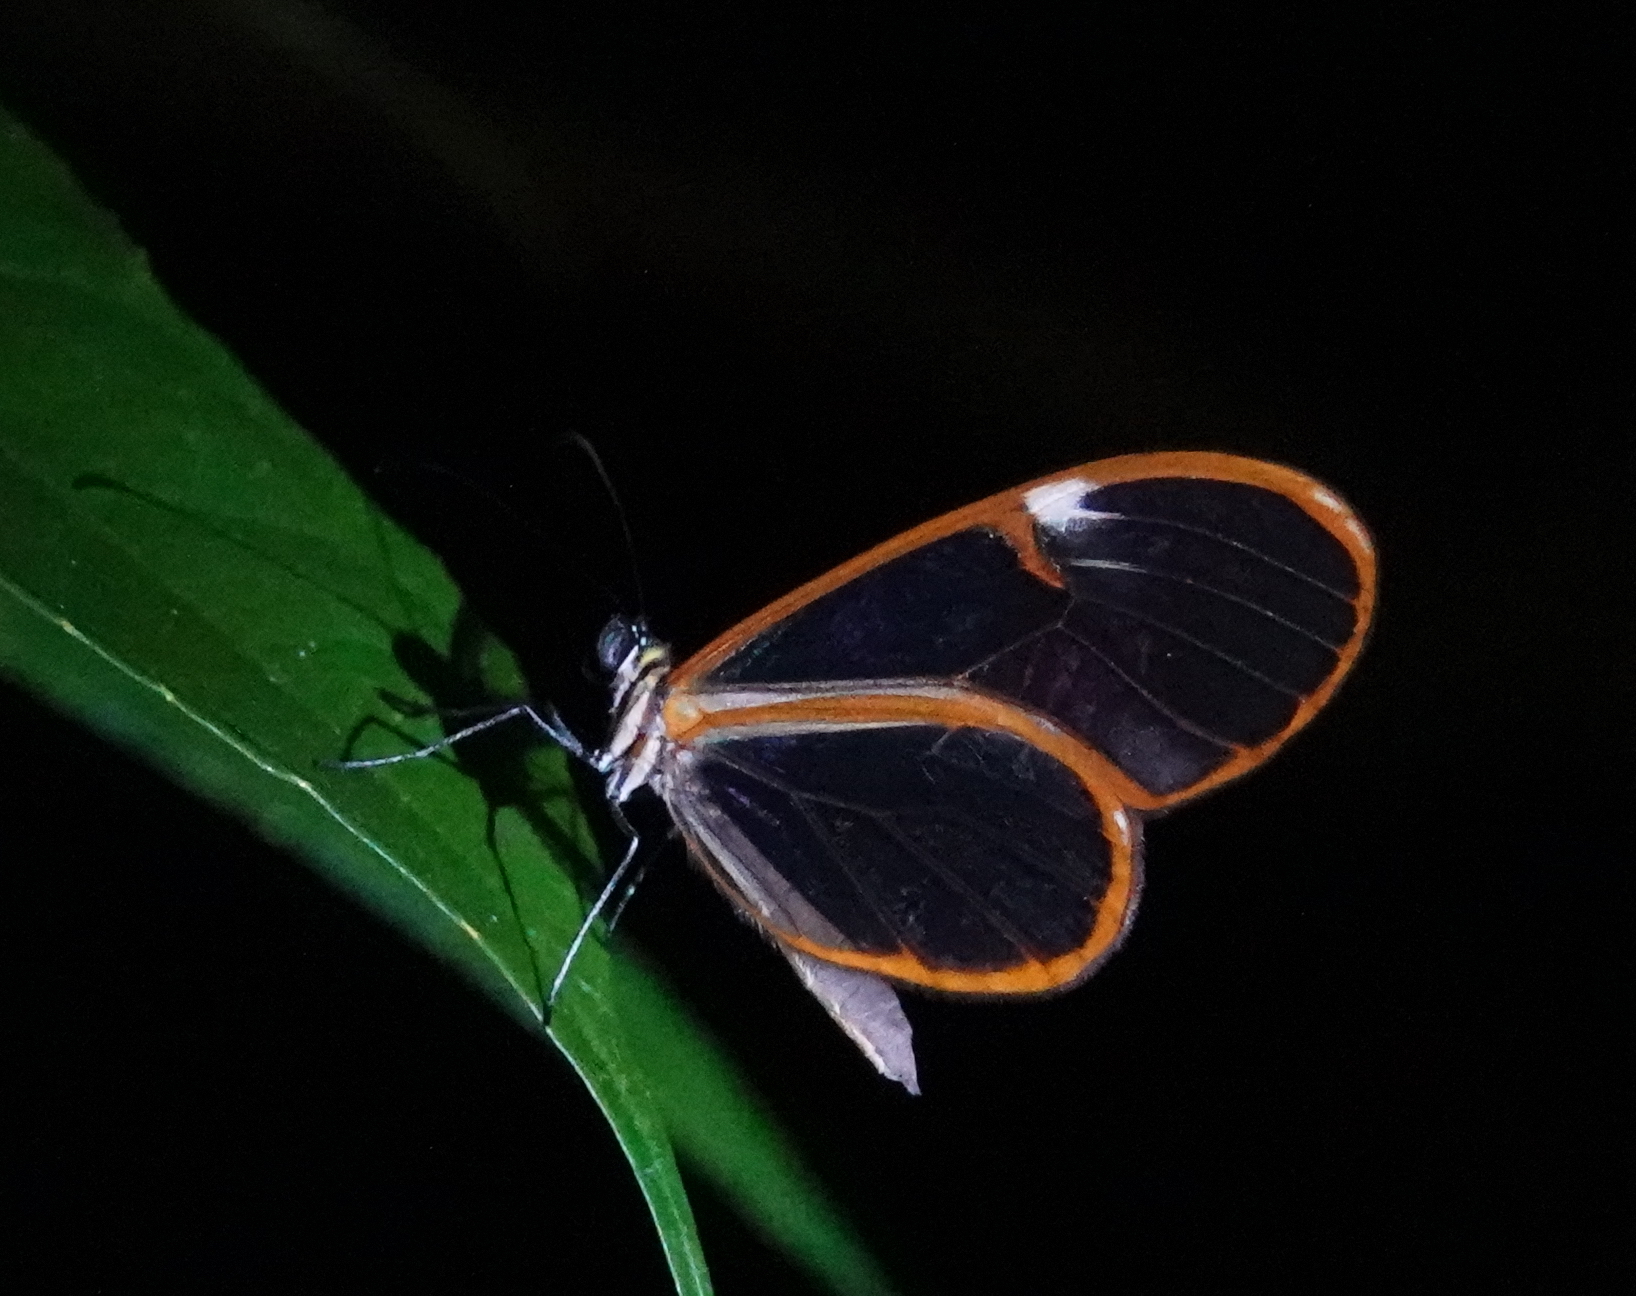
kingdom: Animalia
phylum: Arthropoda
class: Insecta
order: Lepidoptera
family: Nymphalidae
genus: Pteronymia
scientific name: Pteronymia simplex
